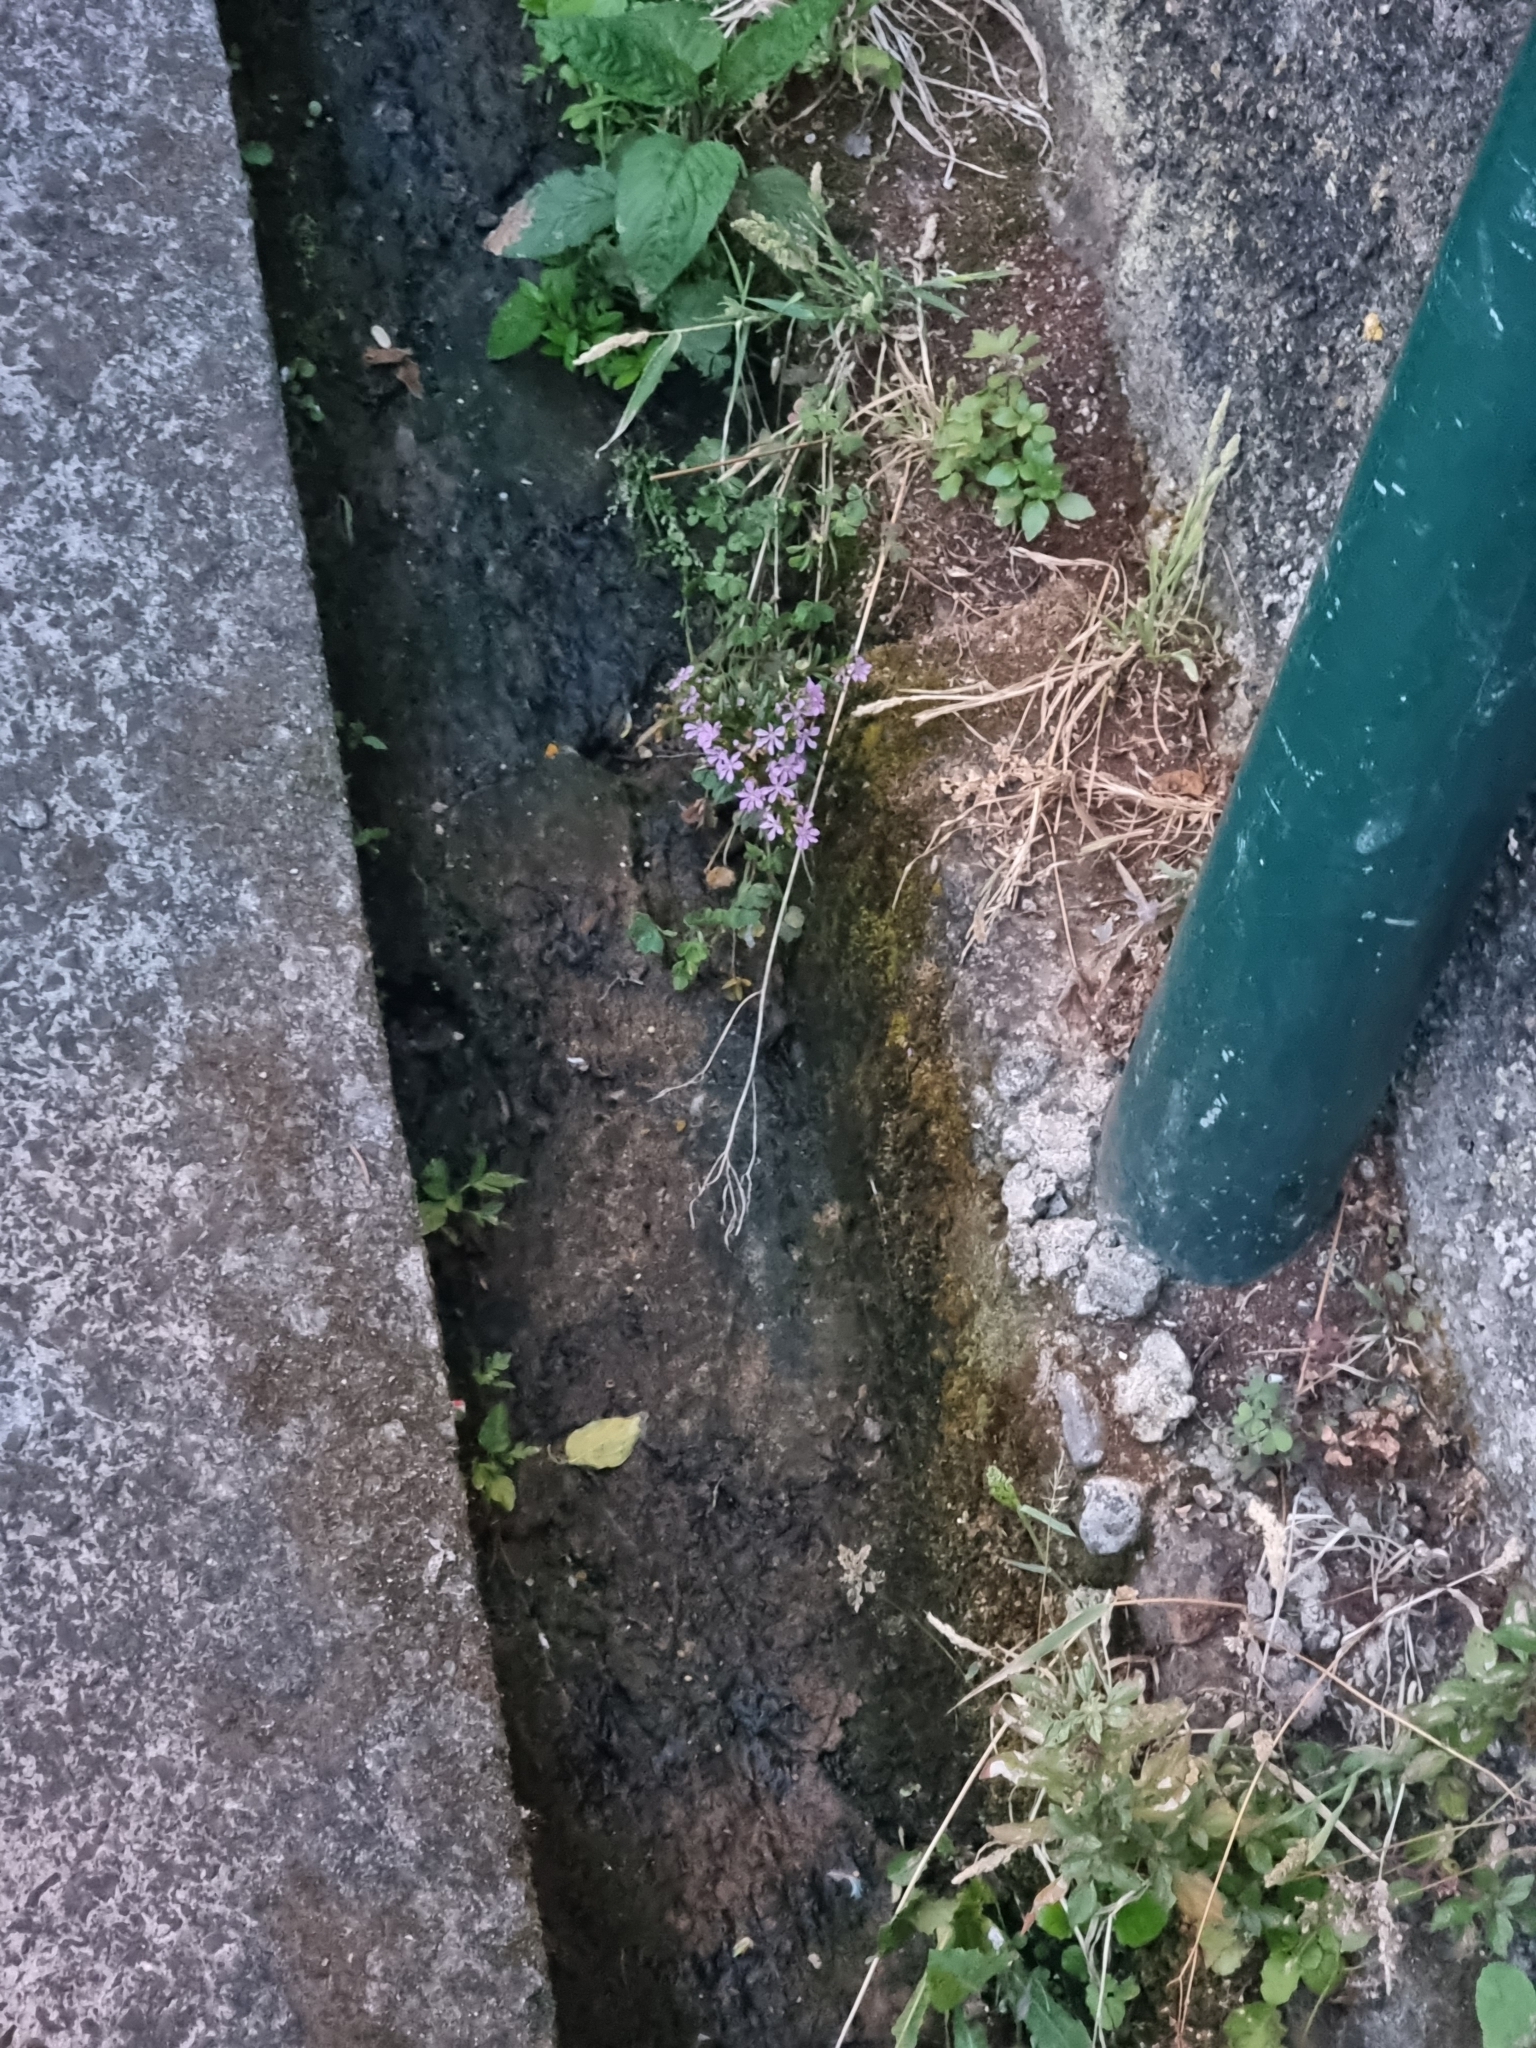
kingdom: Plantae
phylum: Tracheophyta
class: Magnoliopsida
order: Myrtales
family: Lythraceae
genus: Cuphea
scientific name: Cuphea hyssopifolia
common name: False heather
